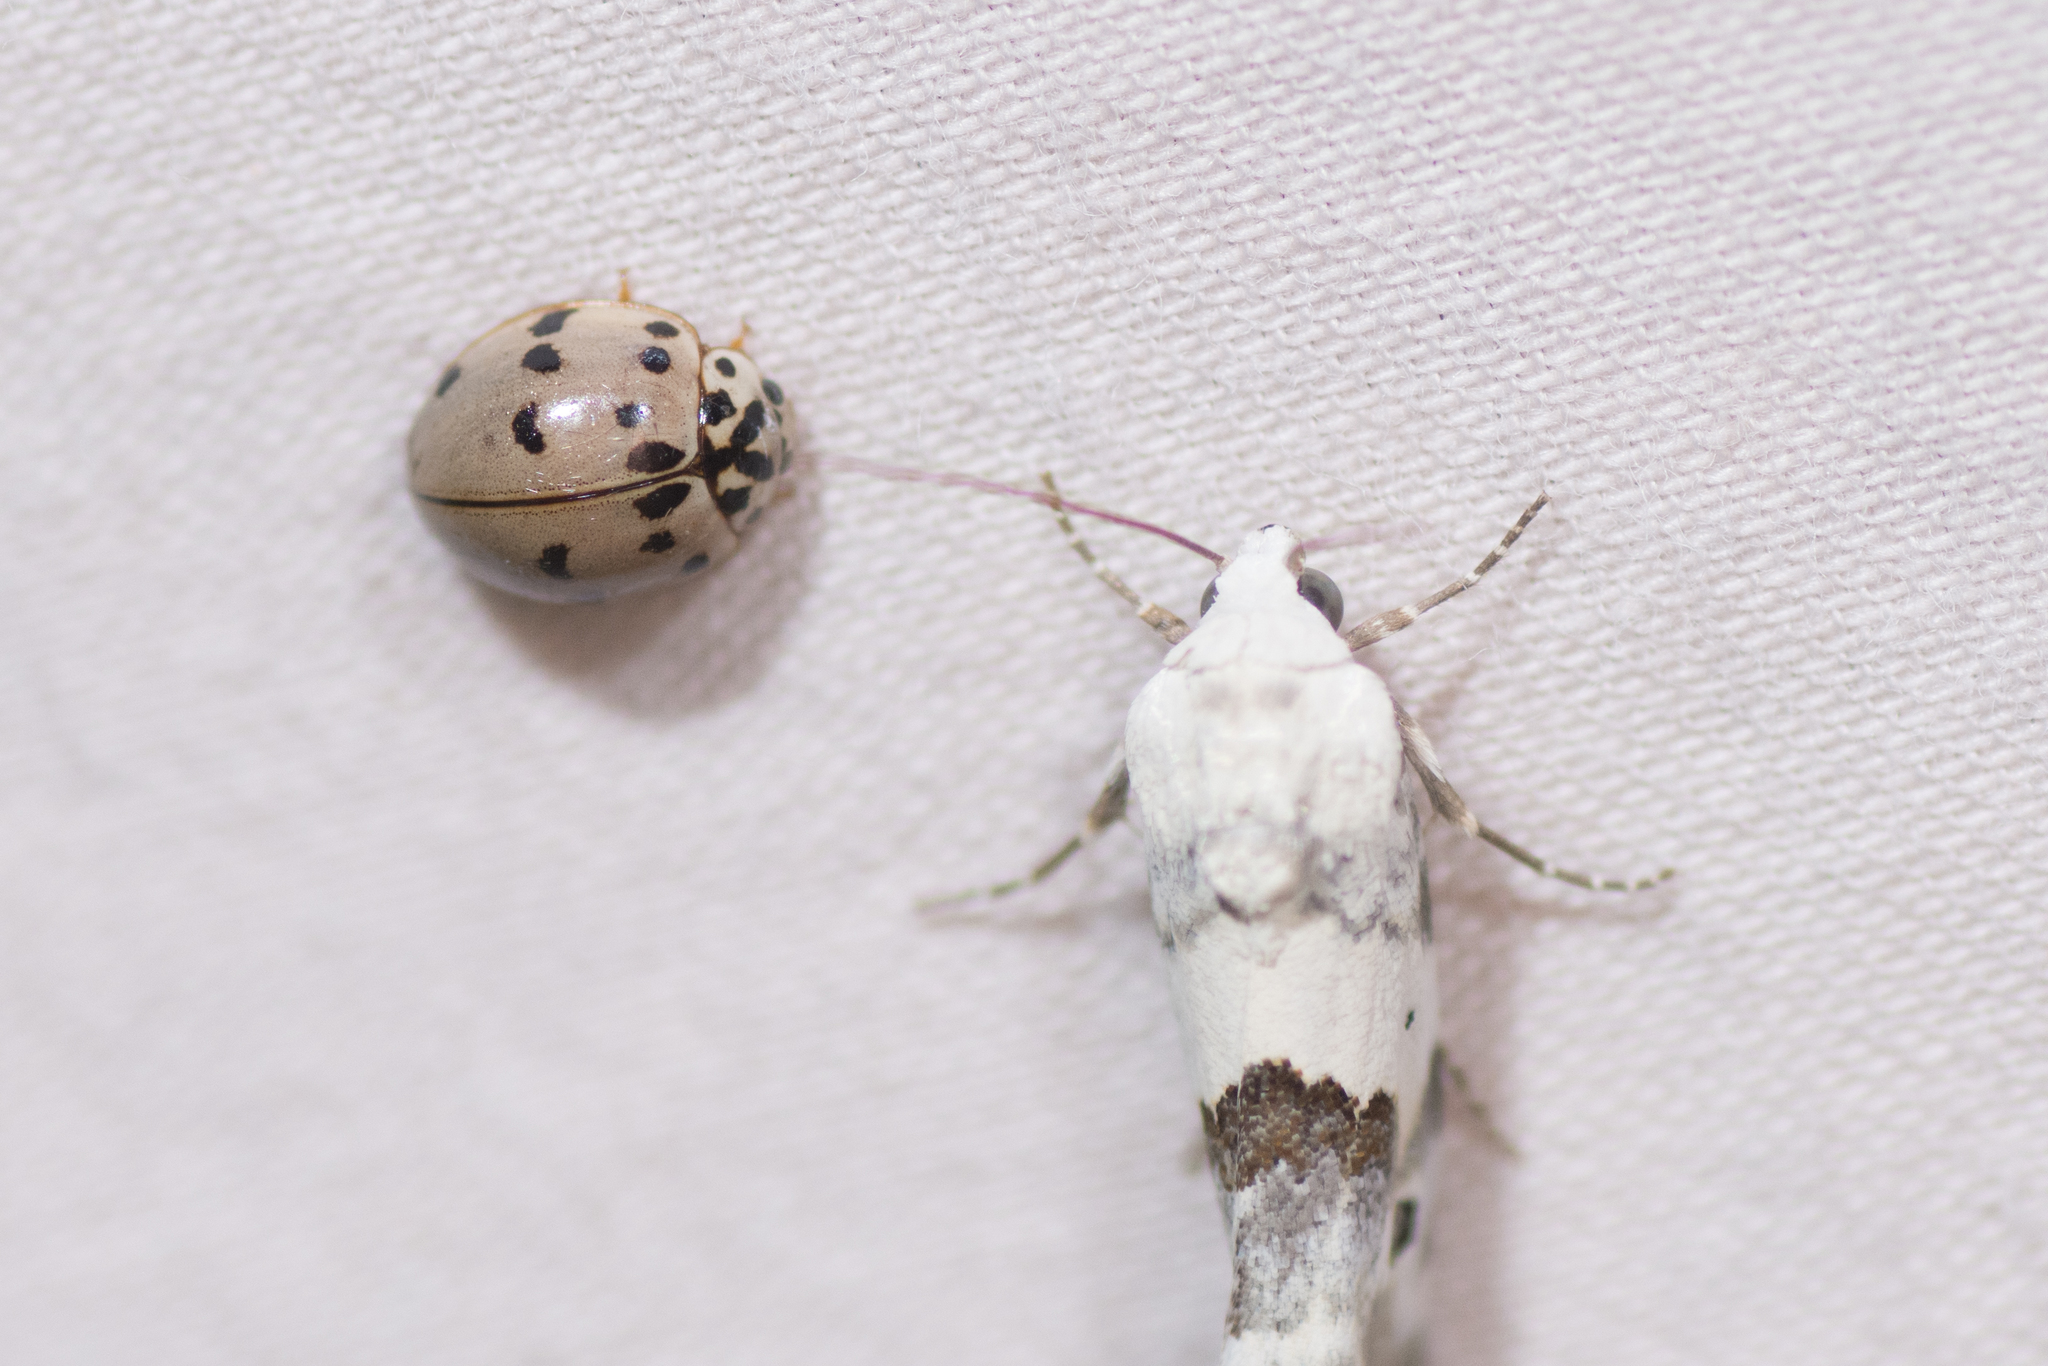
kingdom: Animalia
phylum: Arthropoda
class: Insecta
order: Coleoptera
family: Coccinellidae
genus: Olla
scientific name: Olla v-nigrum
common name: Ashy gray lady beetle
